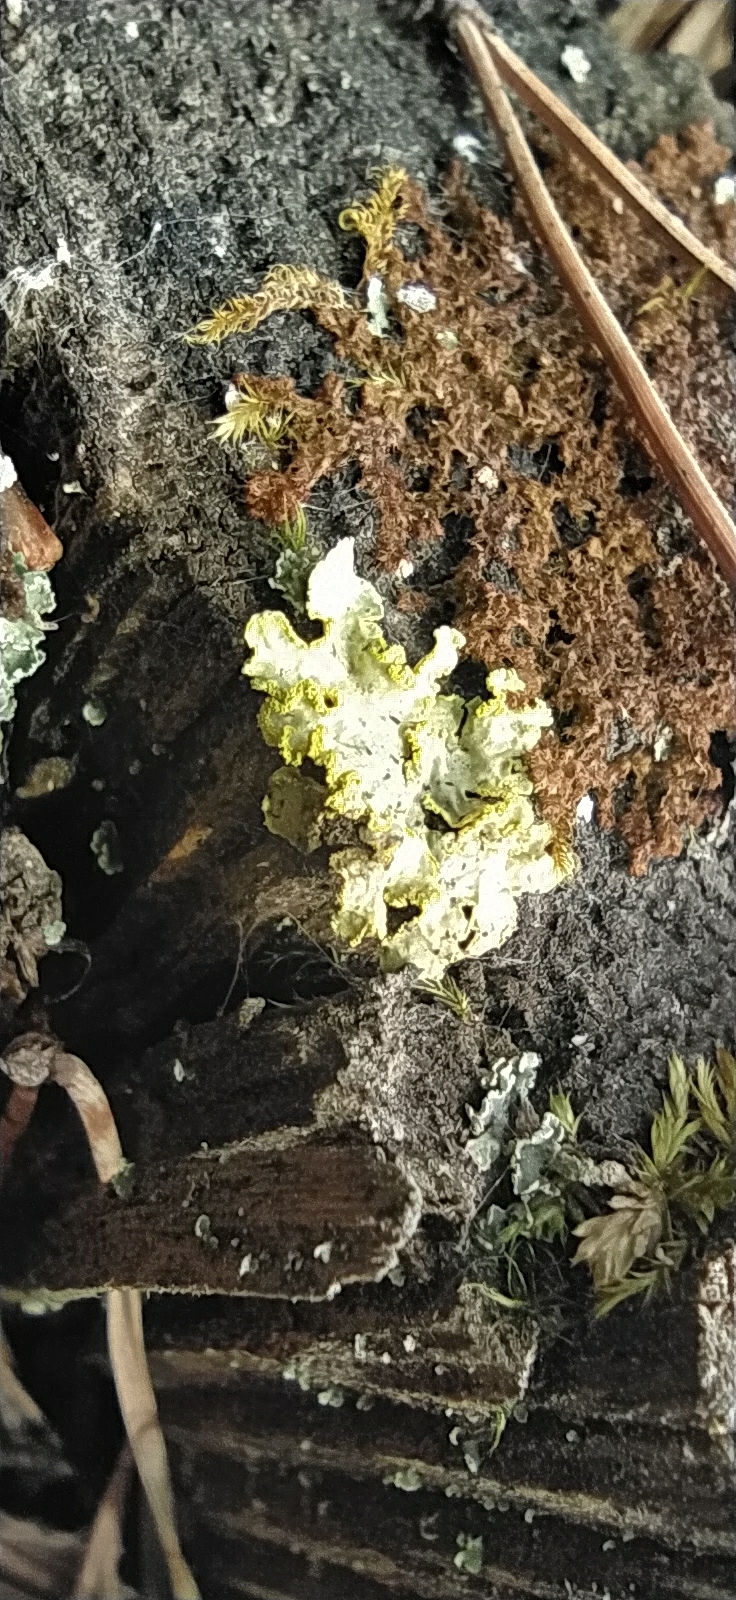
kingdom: Fungi
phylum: Ascomycota
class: Lecanoromycetes
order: Lecanorales
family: Parmeliaceae
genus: Vulpicida
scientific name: Vulpicida pinastri
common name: Powdered sunshine lichen
